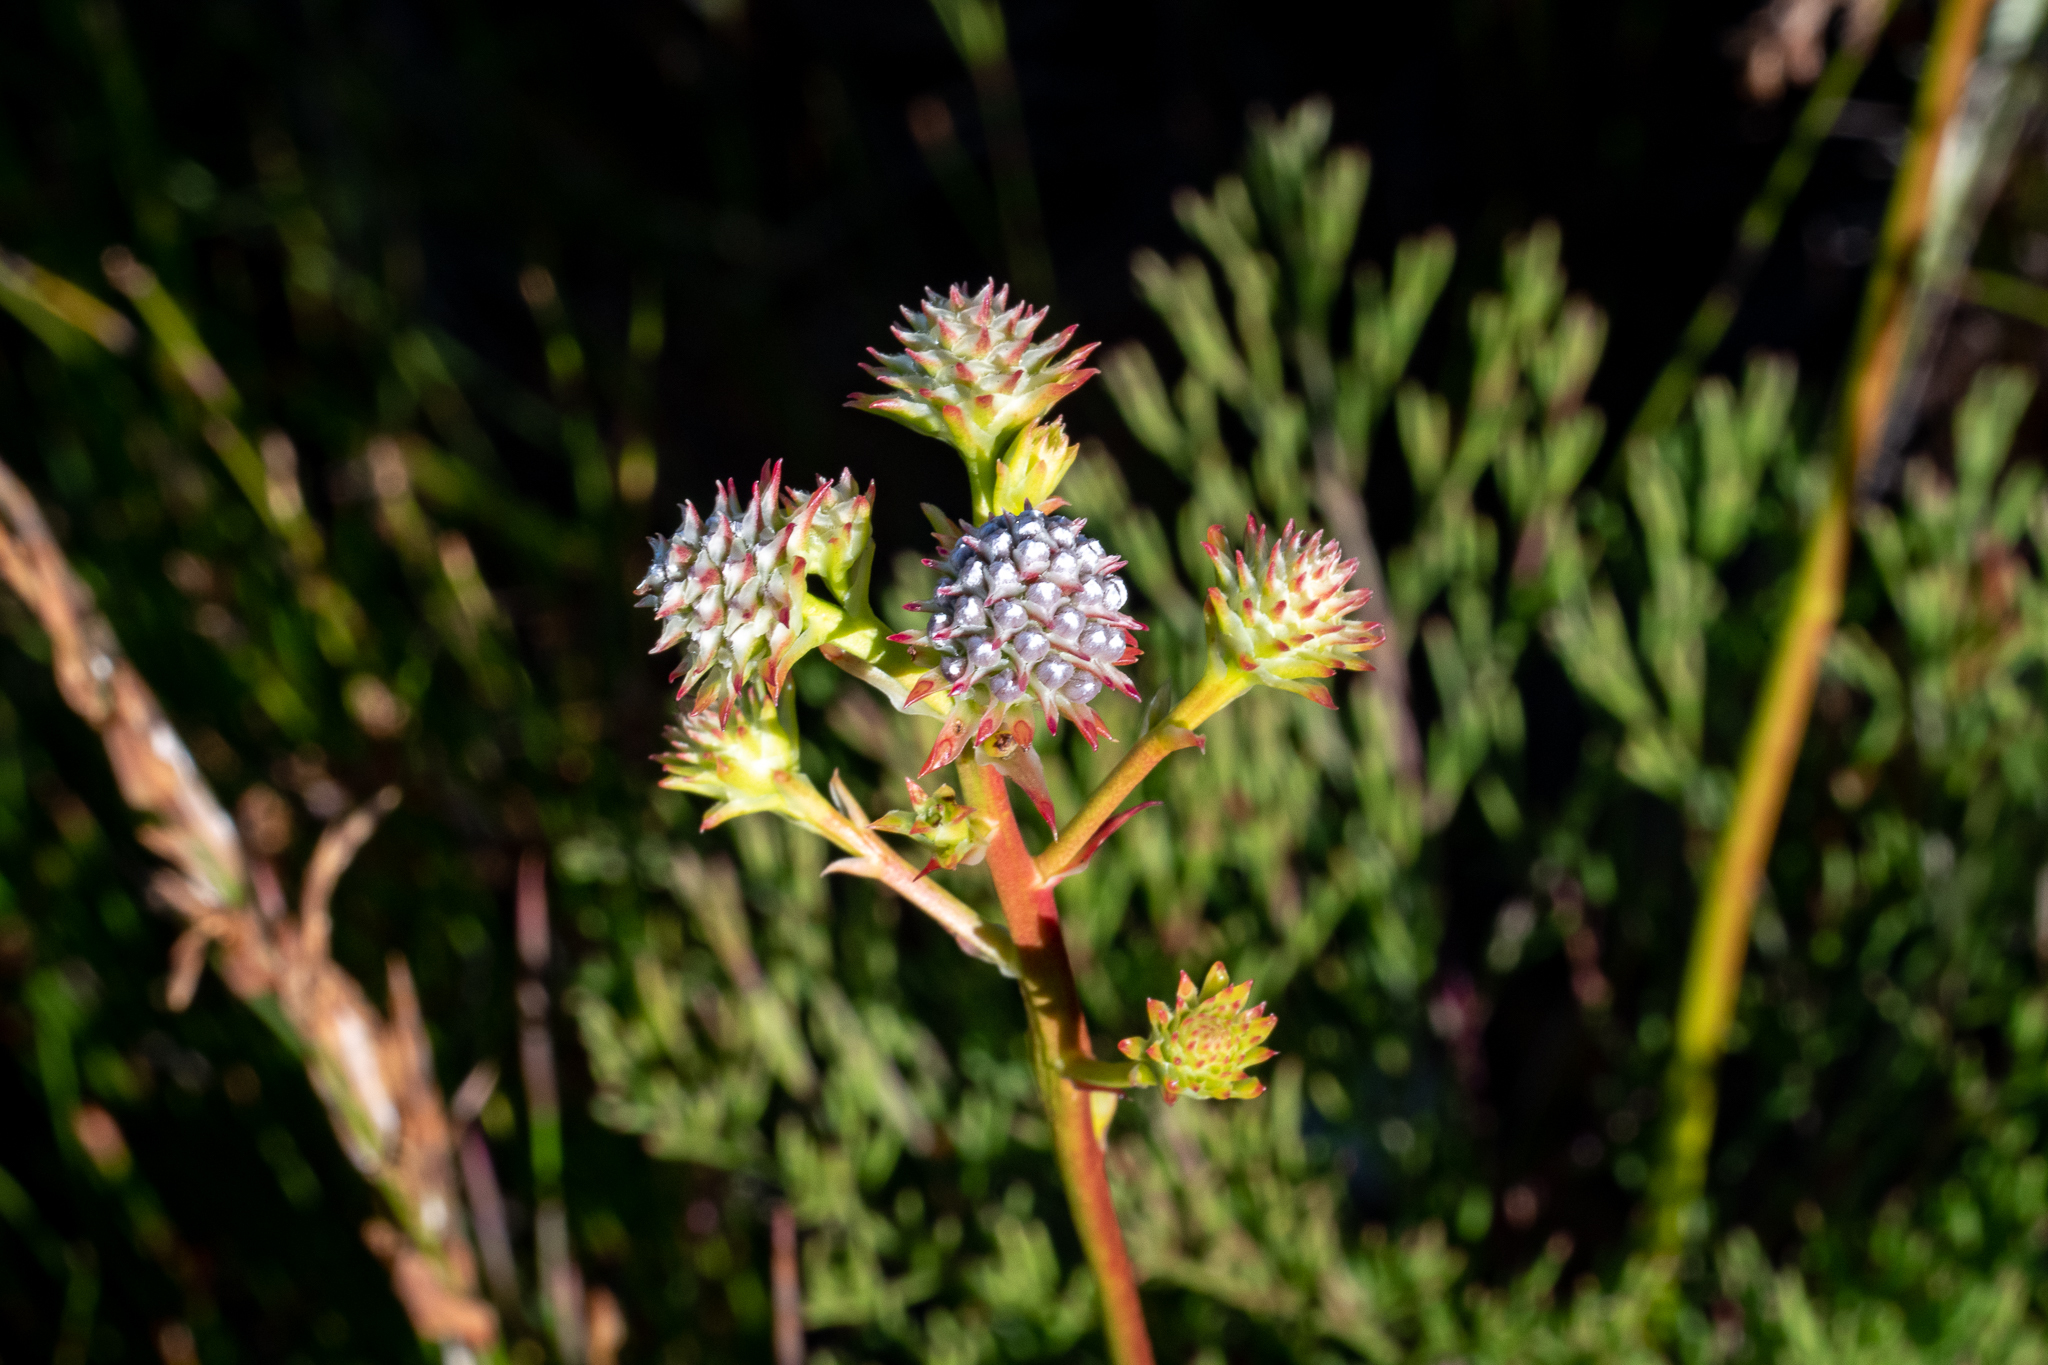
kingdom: Plantae
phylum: Tracheophyta
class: Magnoliopsida
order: Proteales
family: Proteaceae
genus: Serruria
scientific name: Serruria elongata
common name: Long-stalk spiderhead
